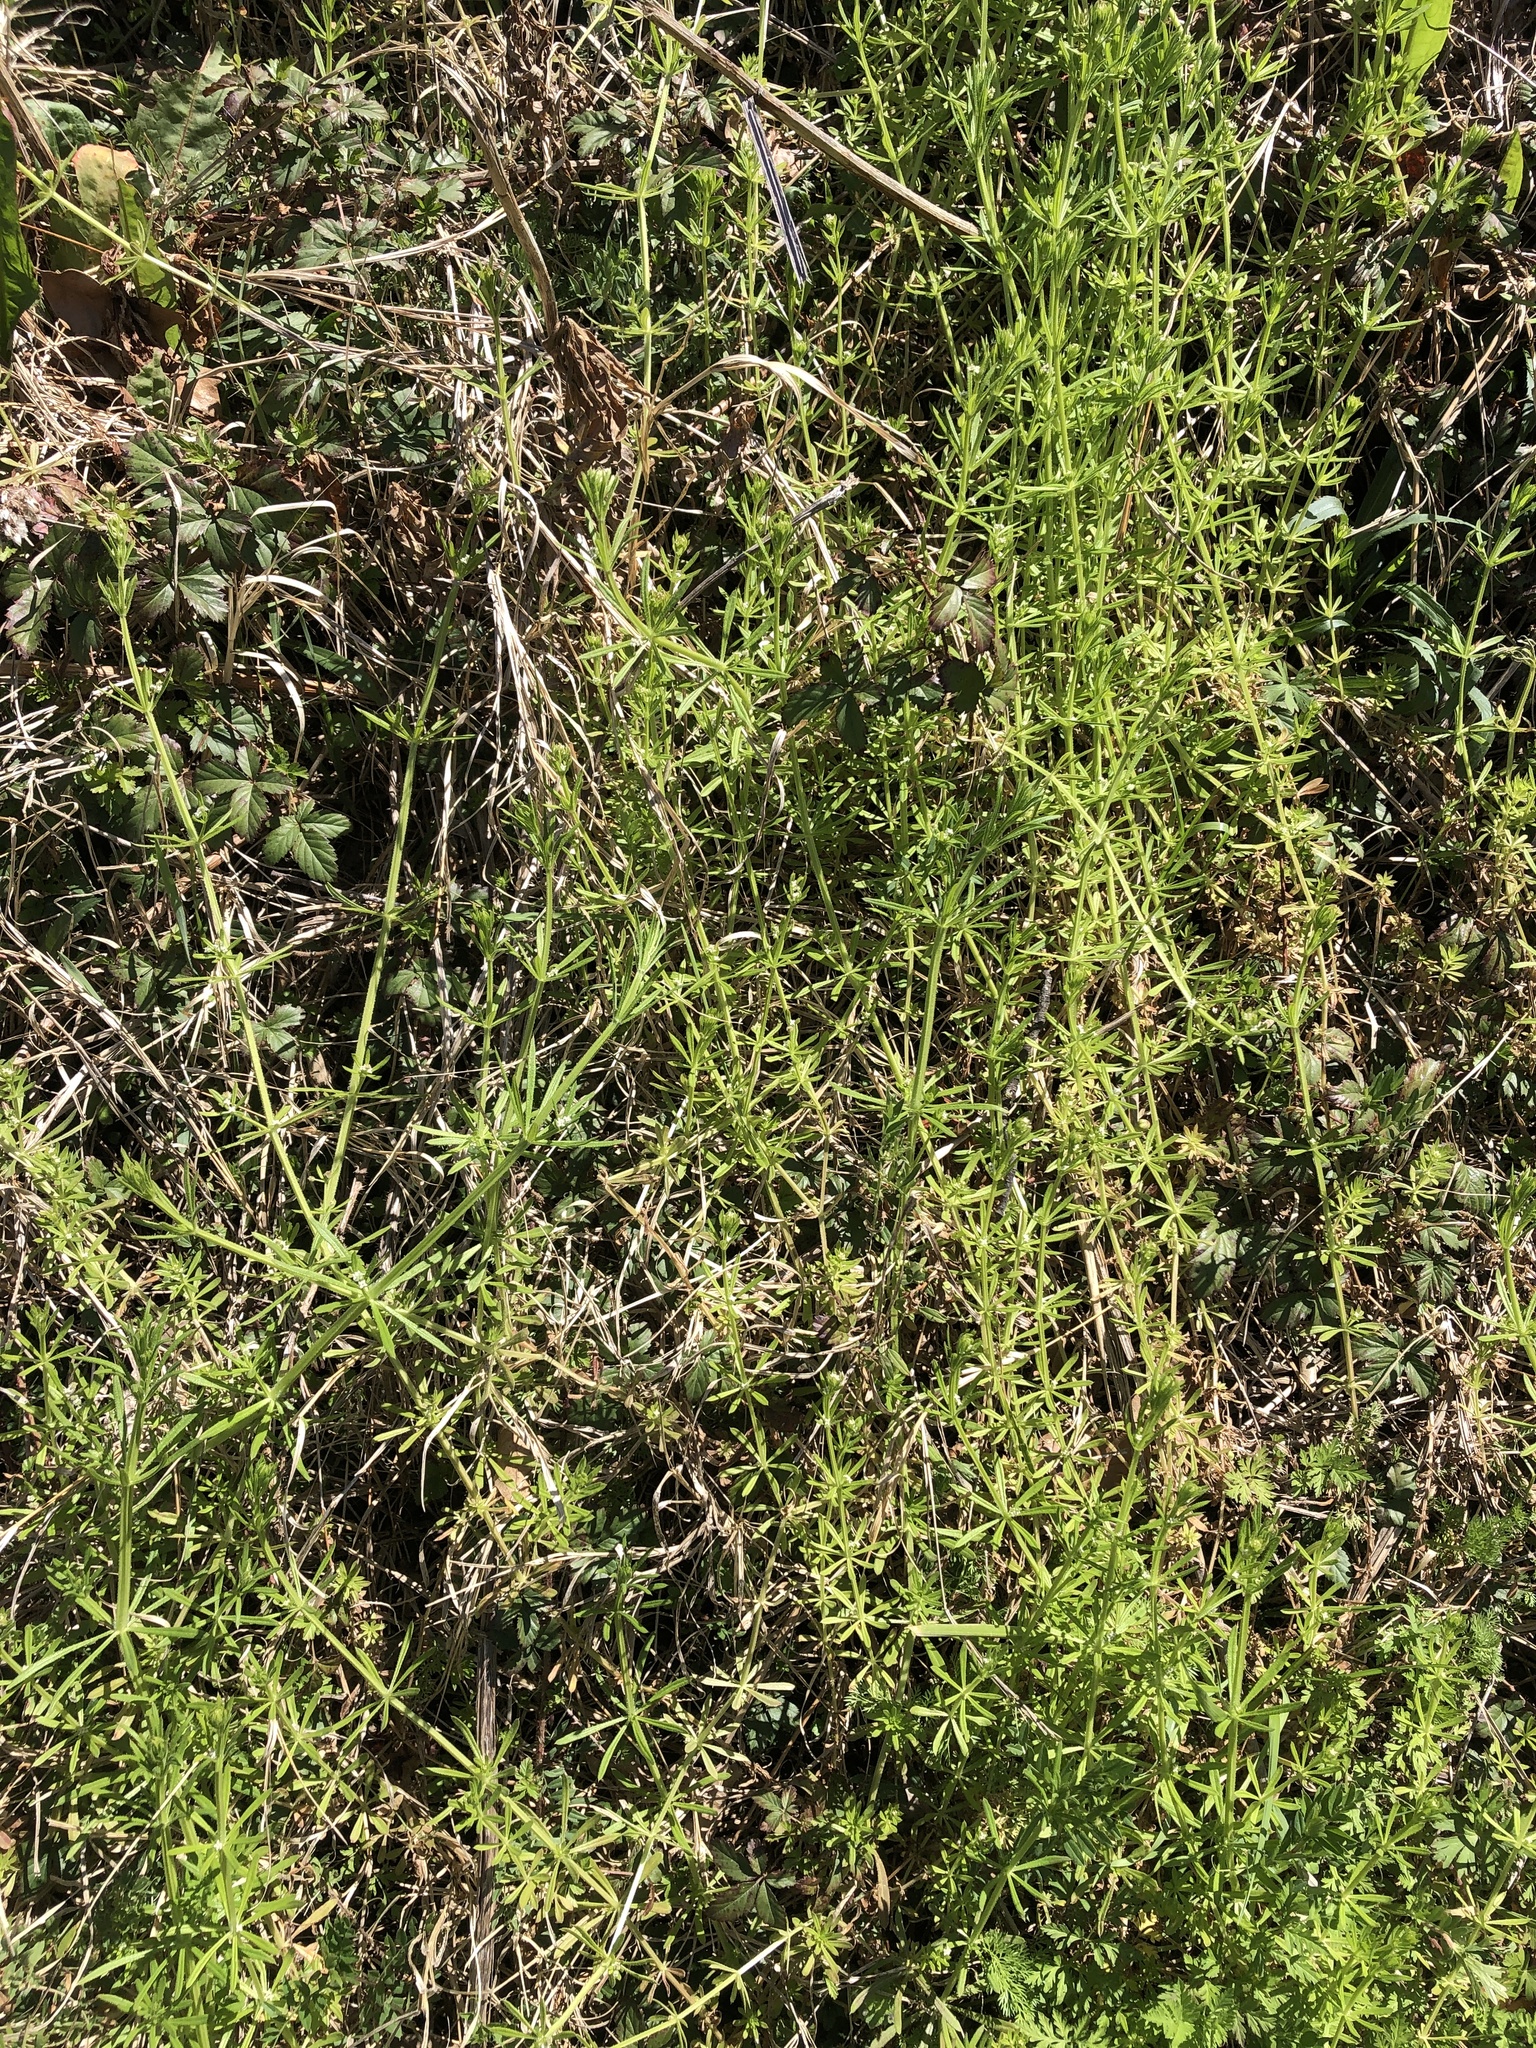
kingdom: Plantae
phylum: Tracheophyta
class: Magnoliopsida
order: Gentianales
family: Rubiaceae
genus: Galium
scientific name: Galium aparine
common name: Cleavers
